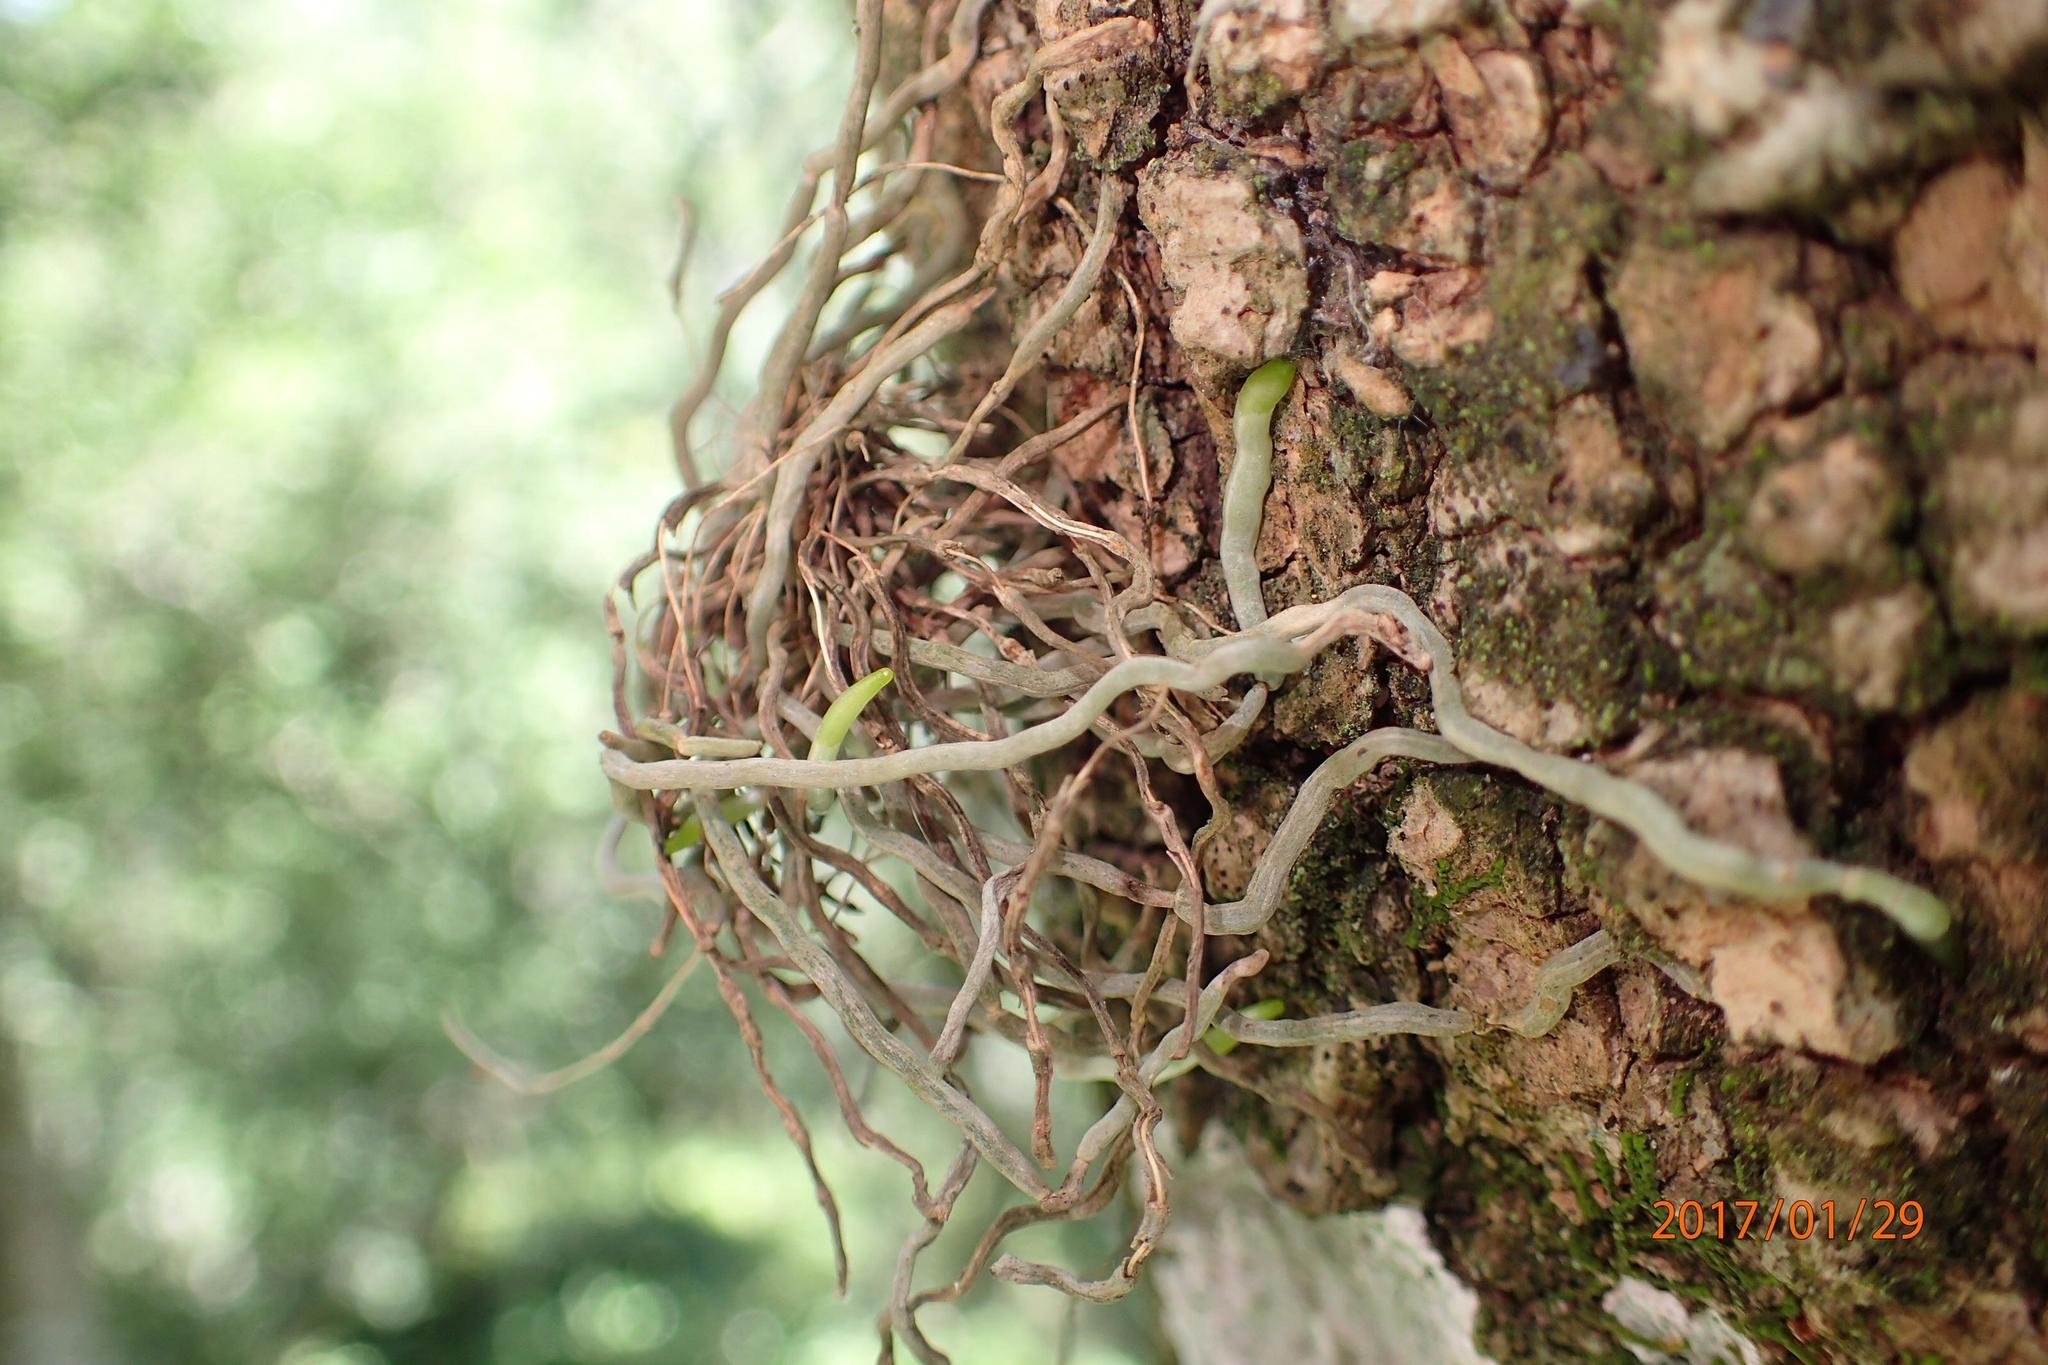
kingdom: Plantae
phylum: Tracheophyta
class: Liliopsida
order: Asparagales
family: Orchidaceae
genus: Mystacidium
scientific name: Mystacidium gracile
